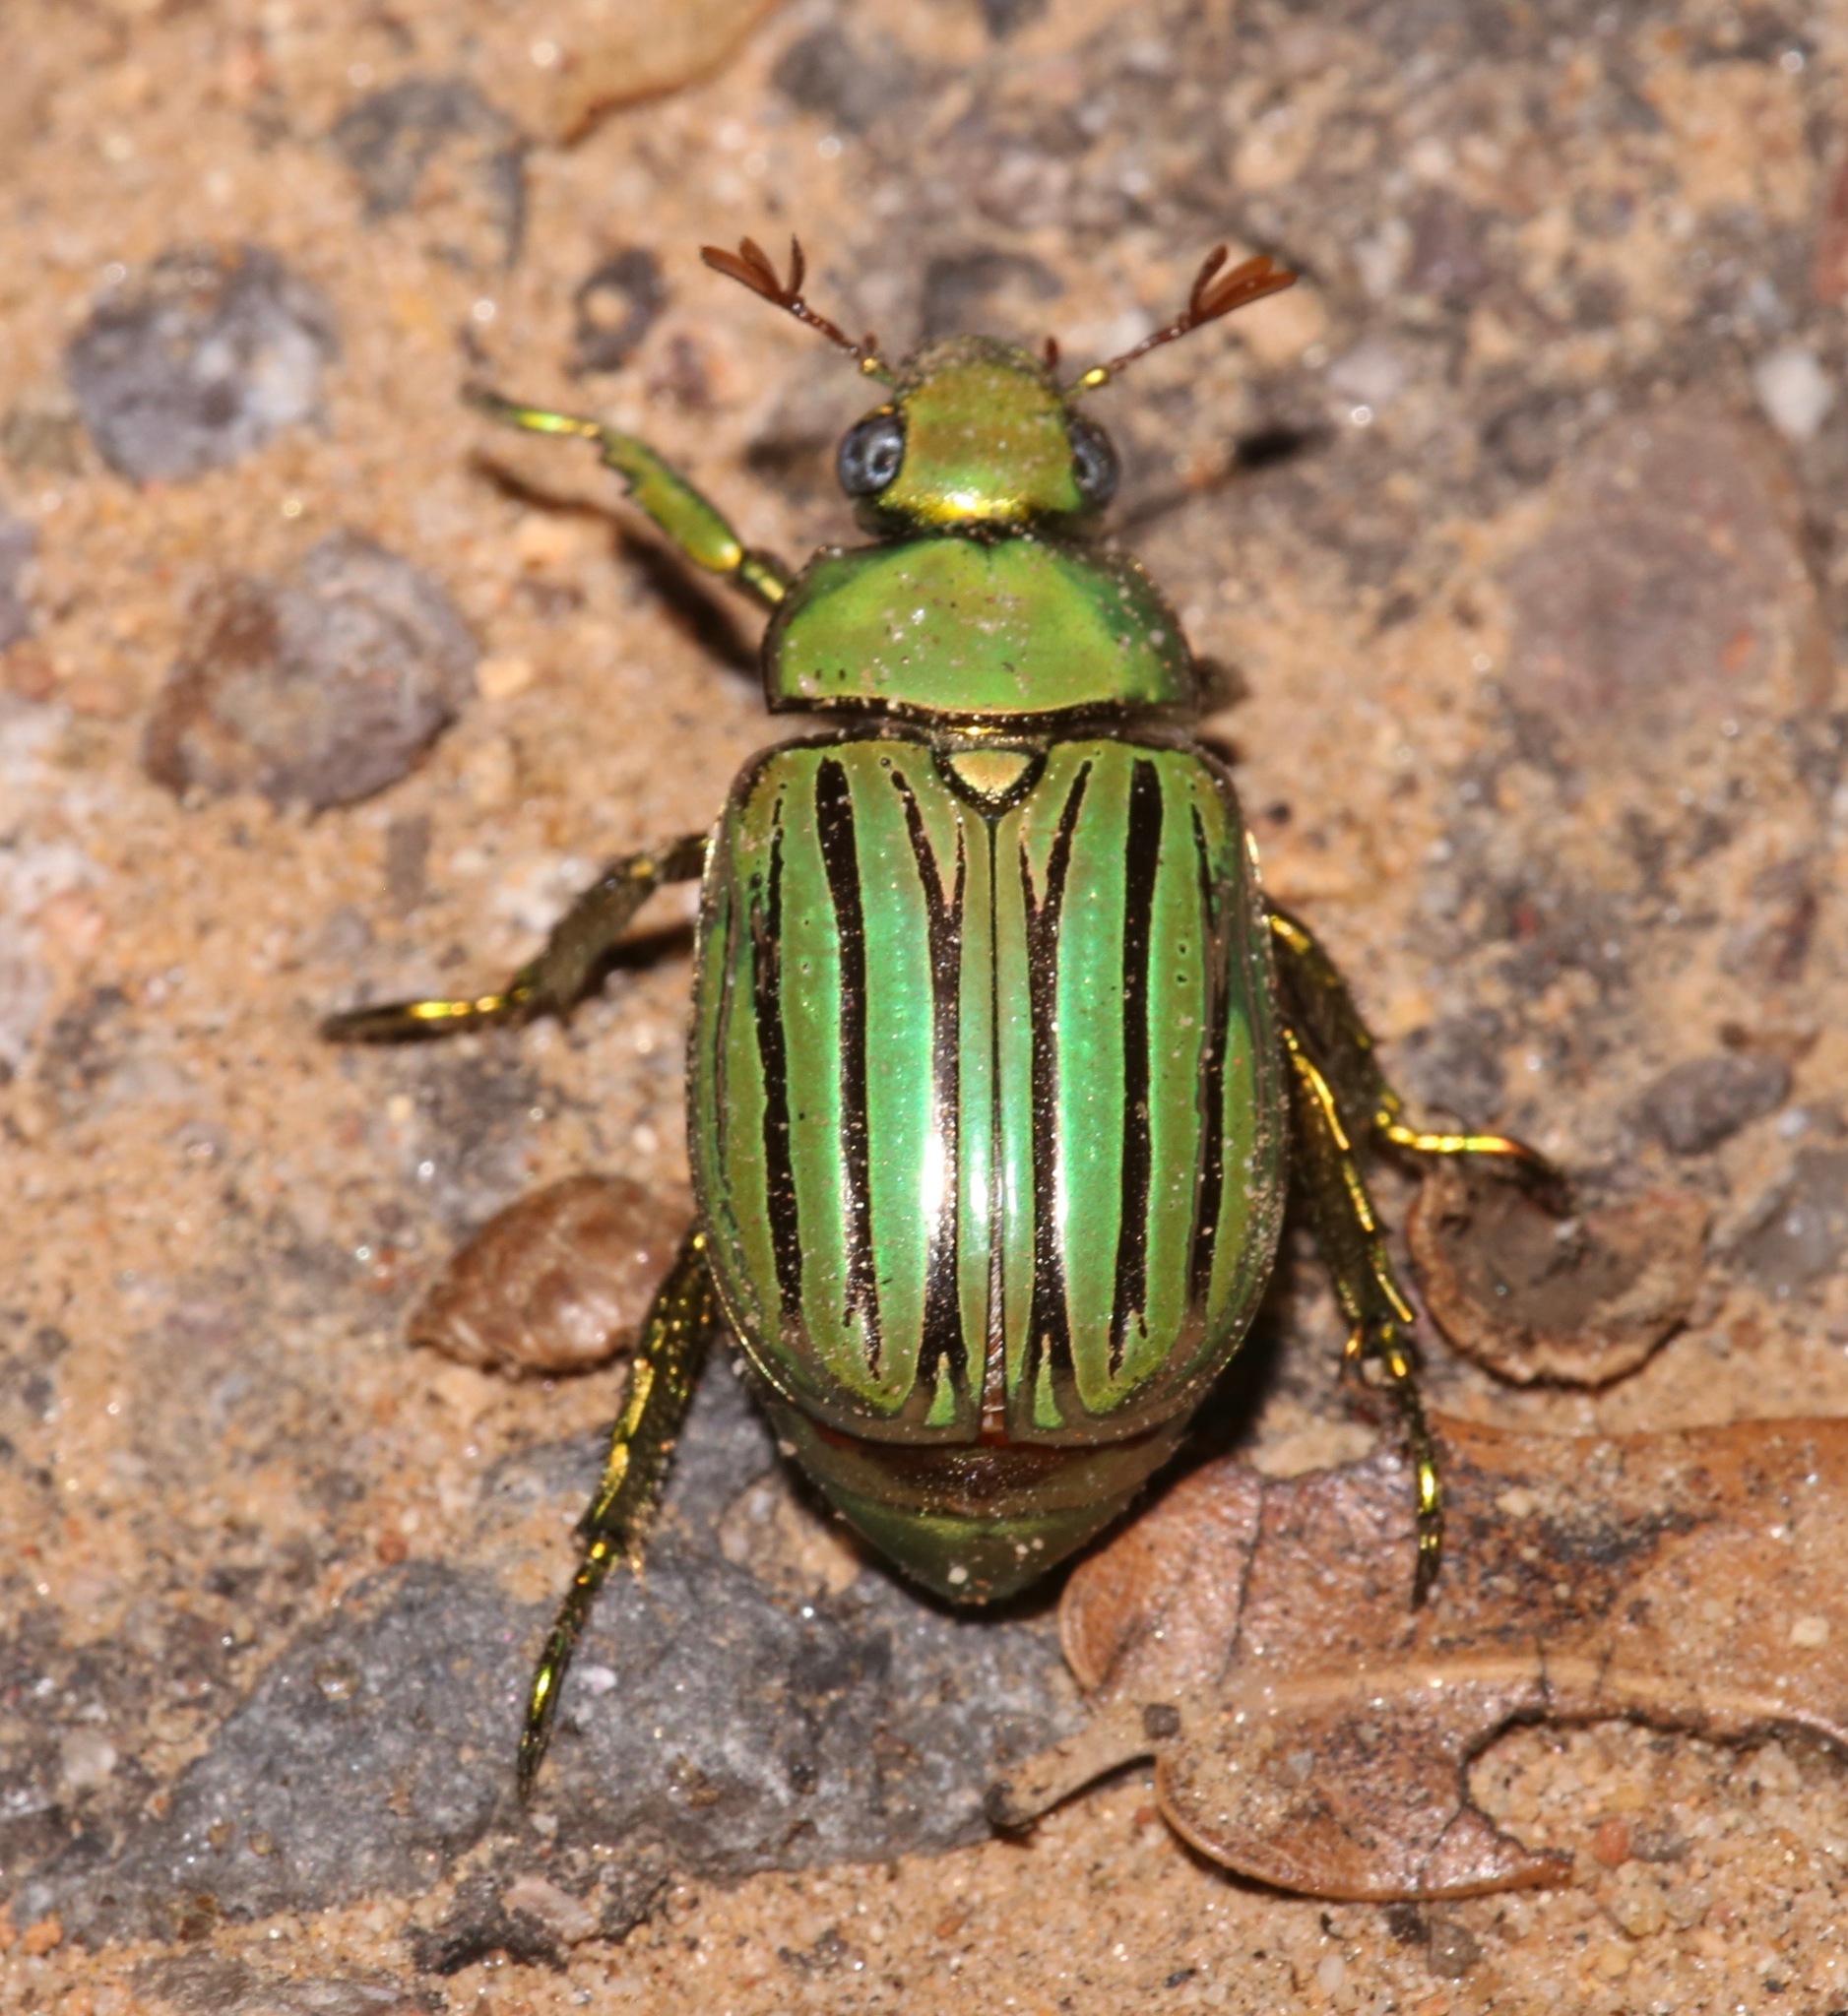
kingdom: Animalia
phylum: Arthropoda
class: Insecta
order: Coleoptera
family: Scarabaeidae
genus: Chrysina
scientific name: Chrysina gloriosa
